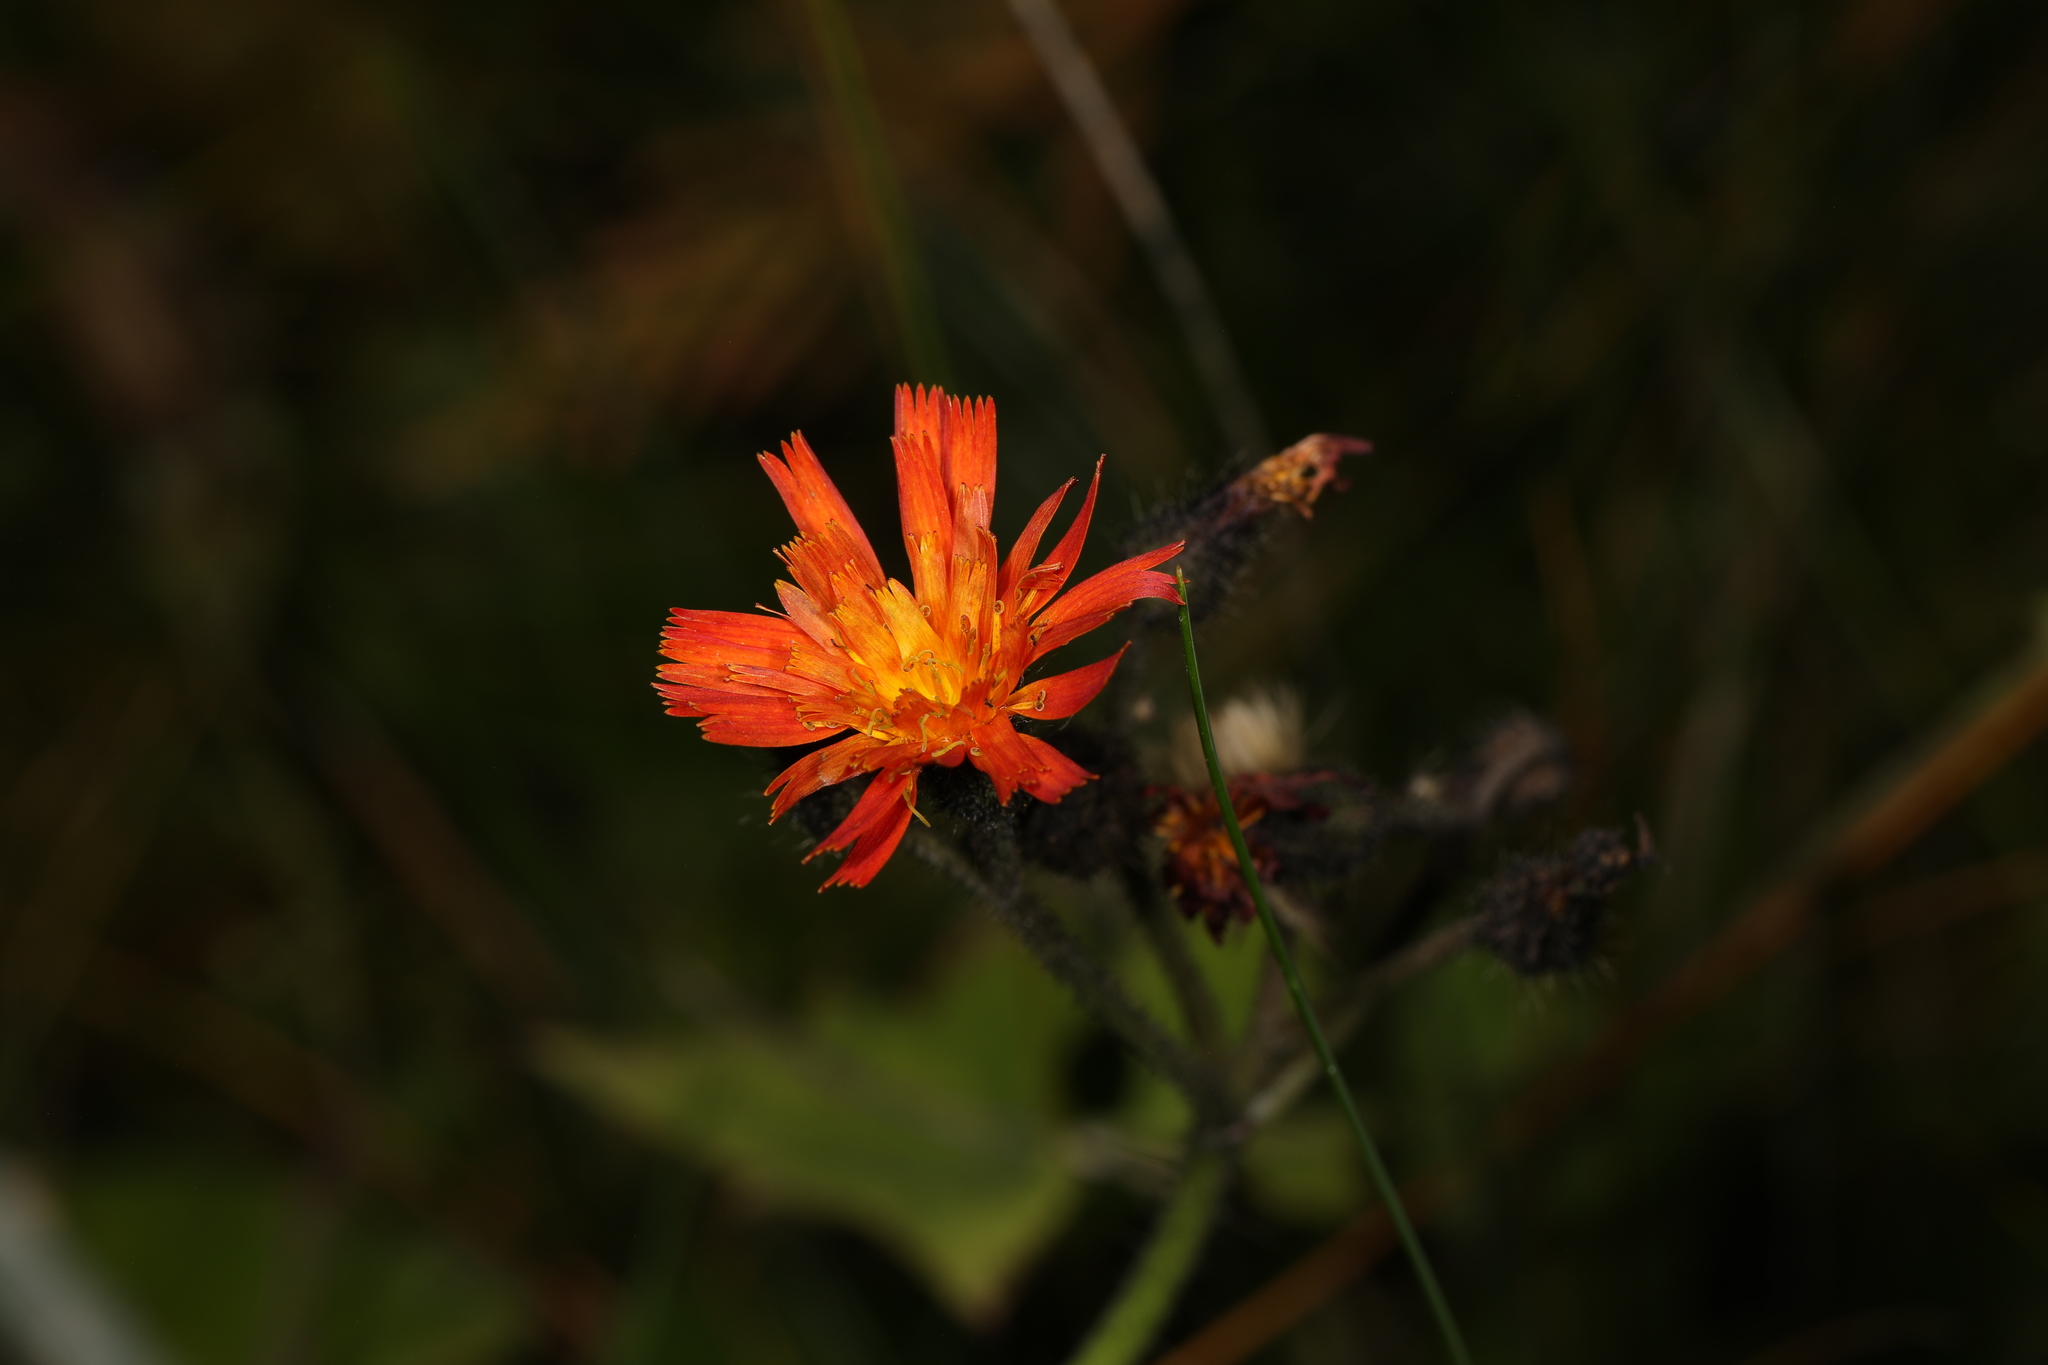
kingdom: Plantae
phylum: Tracheophyta
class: Magnoliopsida
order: Asterales
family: Asteraceae
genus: Pilosella
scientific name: Pilosella aurantiaca
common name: Fox-and-cubs
